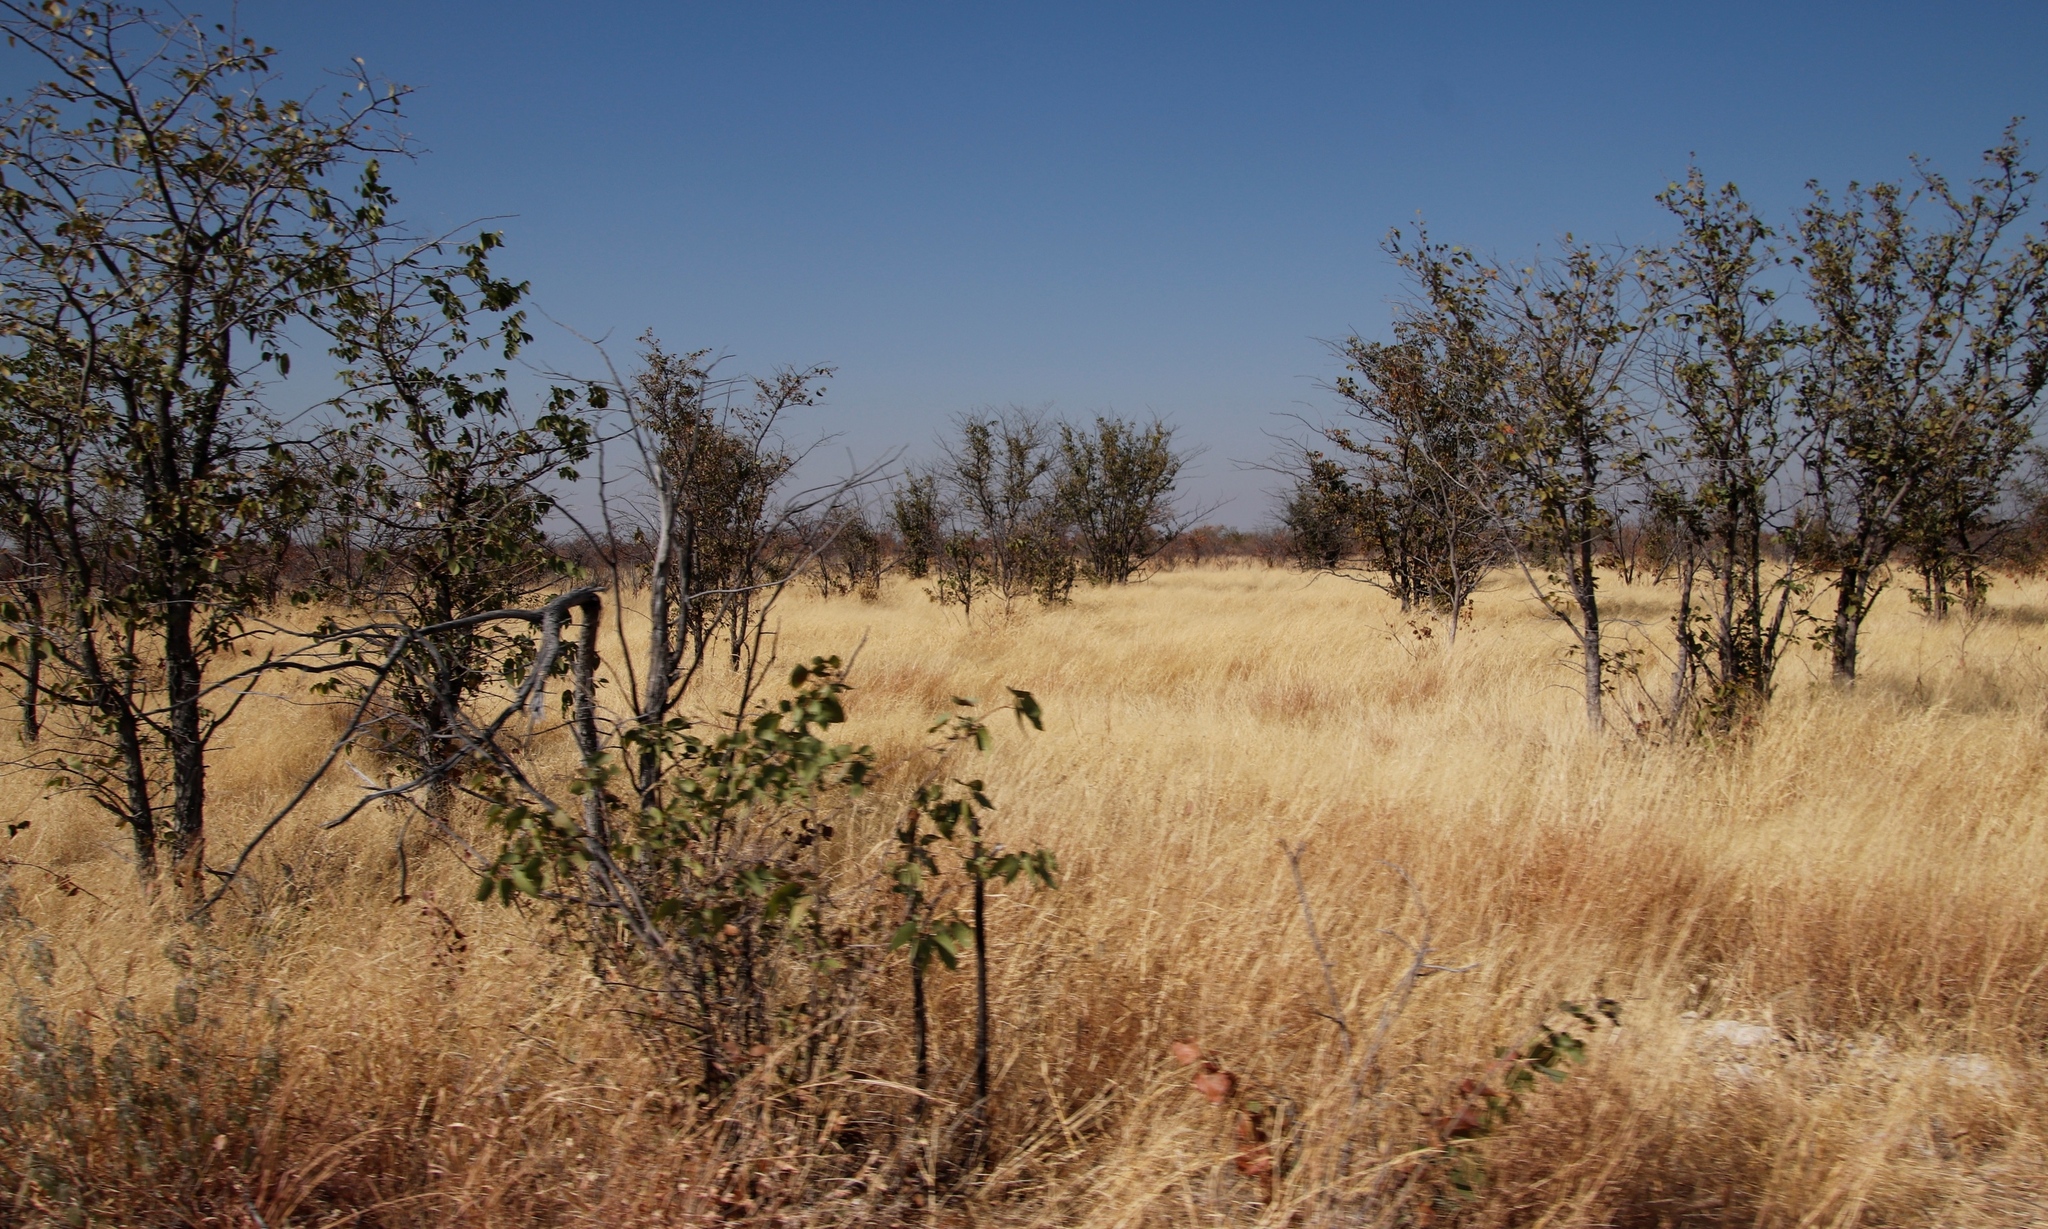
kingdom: Plantae
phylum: Tracheophyta
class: Magnoliopsida
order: Fabales
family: Fabaceae
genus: Colophospermum
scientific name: Colophospermum mopane
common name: Mopane
